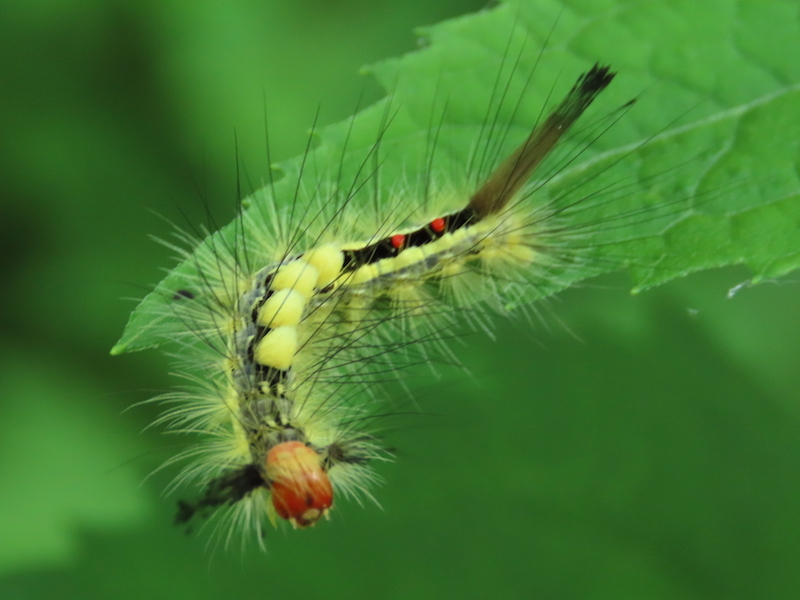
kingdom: Animalia
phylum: Arthropoda
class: Insecta
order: Lepidoptera
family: Erebidae
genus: Orgyia
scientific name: Orgyia leucostigma
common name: White-marked tussock moth
